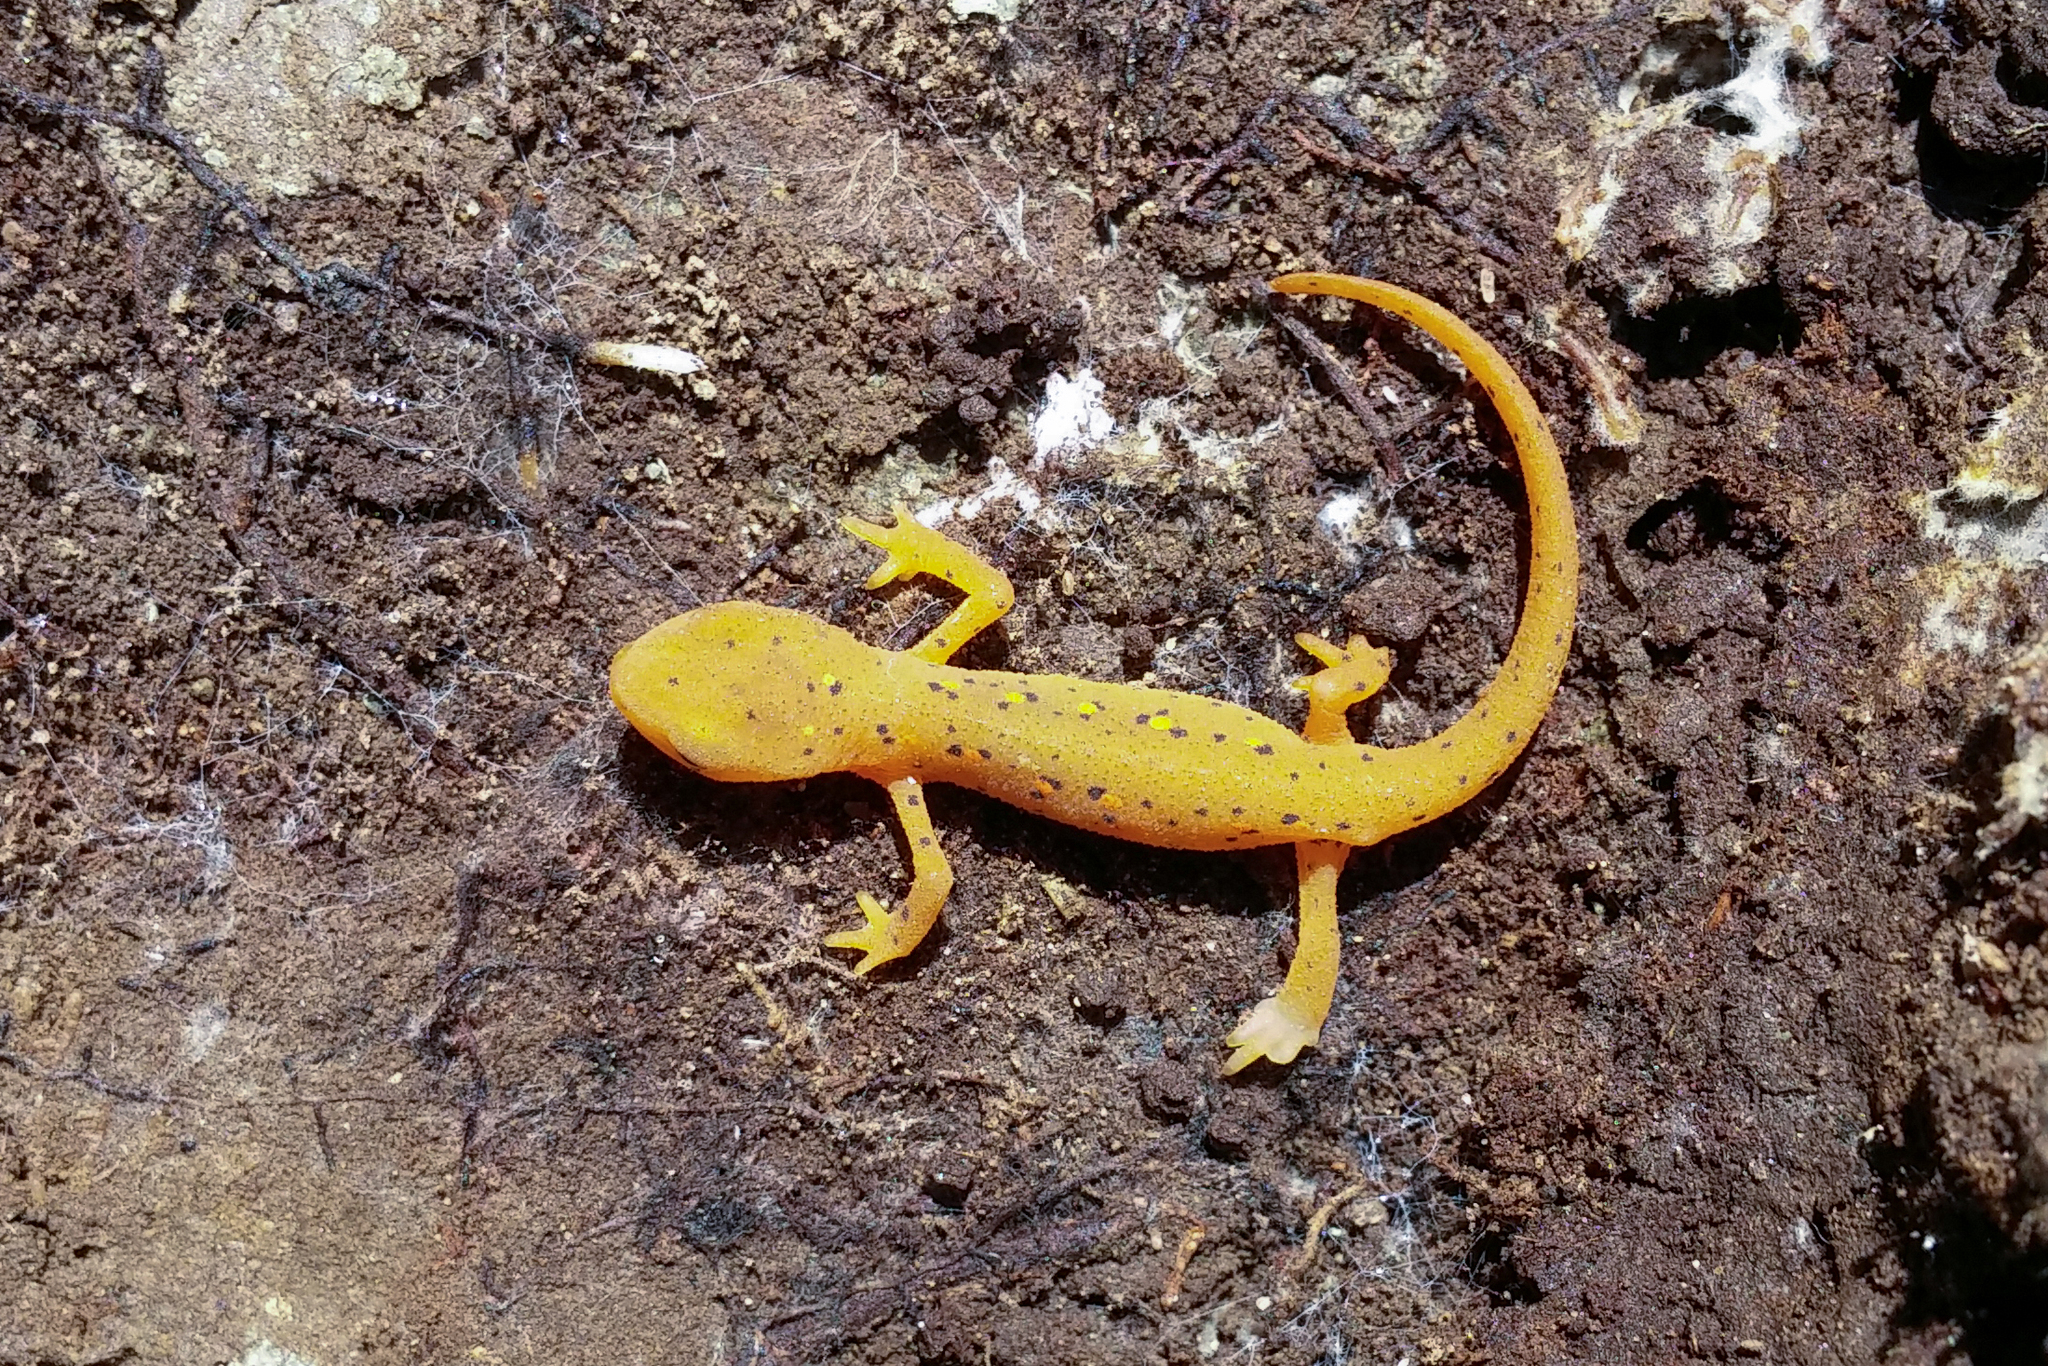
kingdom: Animalia
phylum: Chordata
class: Amphibia
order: Caudata
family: Salamandridae
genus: Notophthalmus
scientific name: Notophthalmus viridescens
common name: Eastern newt
